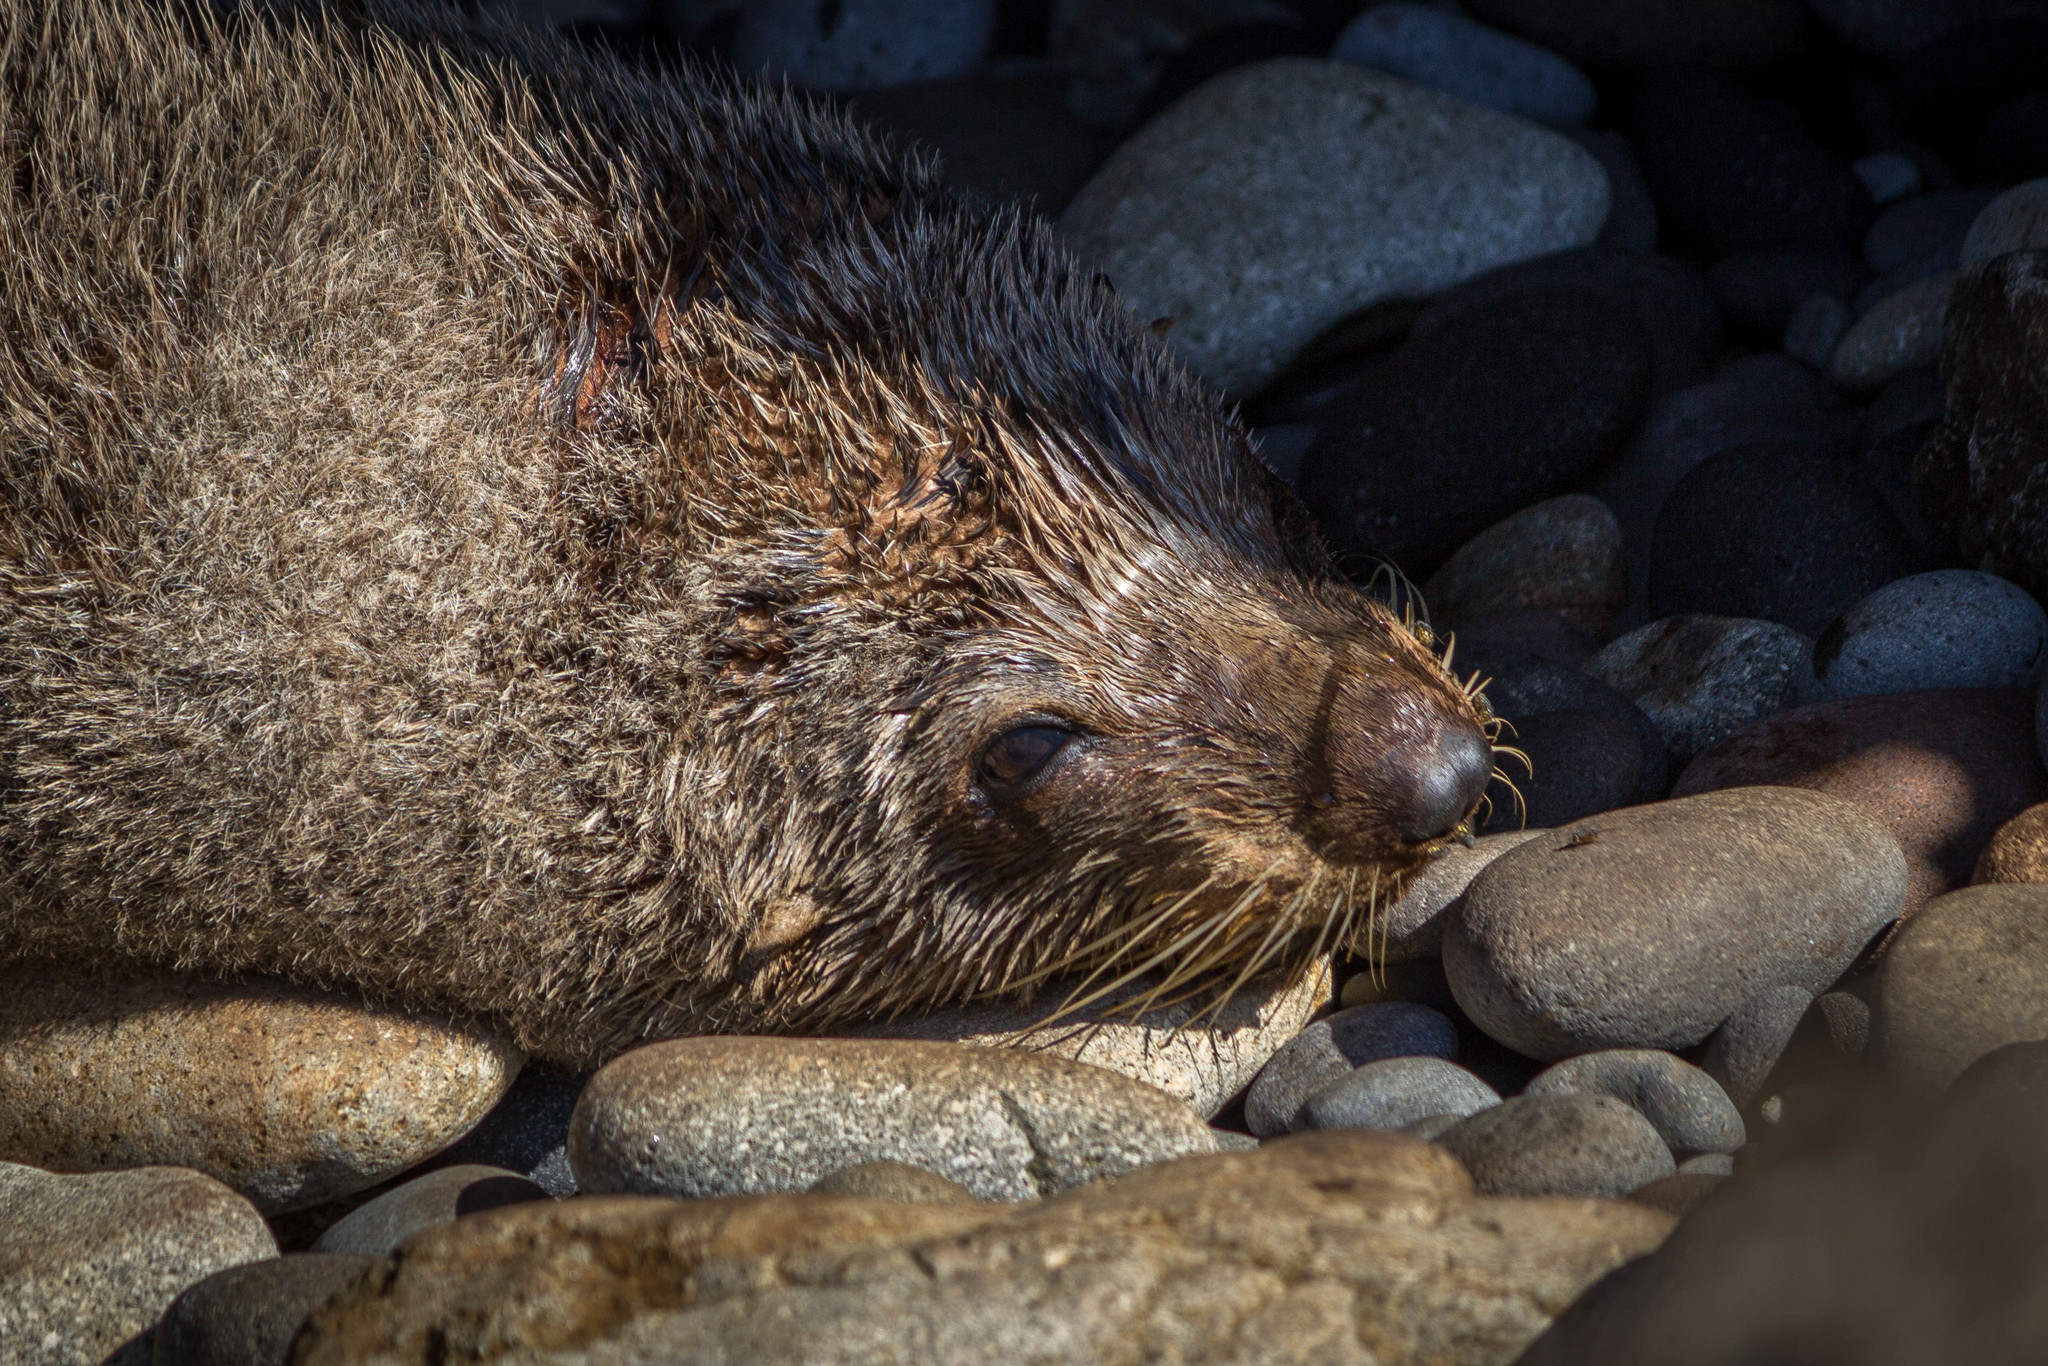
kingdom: Animalia
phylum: Chordata
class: Mammalia
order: Carnivora
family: Otariidae
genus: Arctocephalus
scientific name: Arctocephalus forsteri
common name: New zealand fur seal
